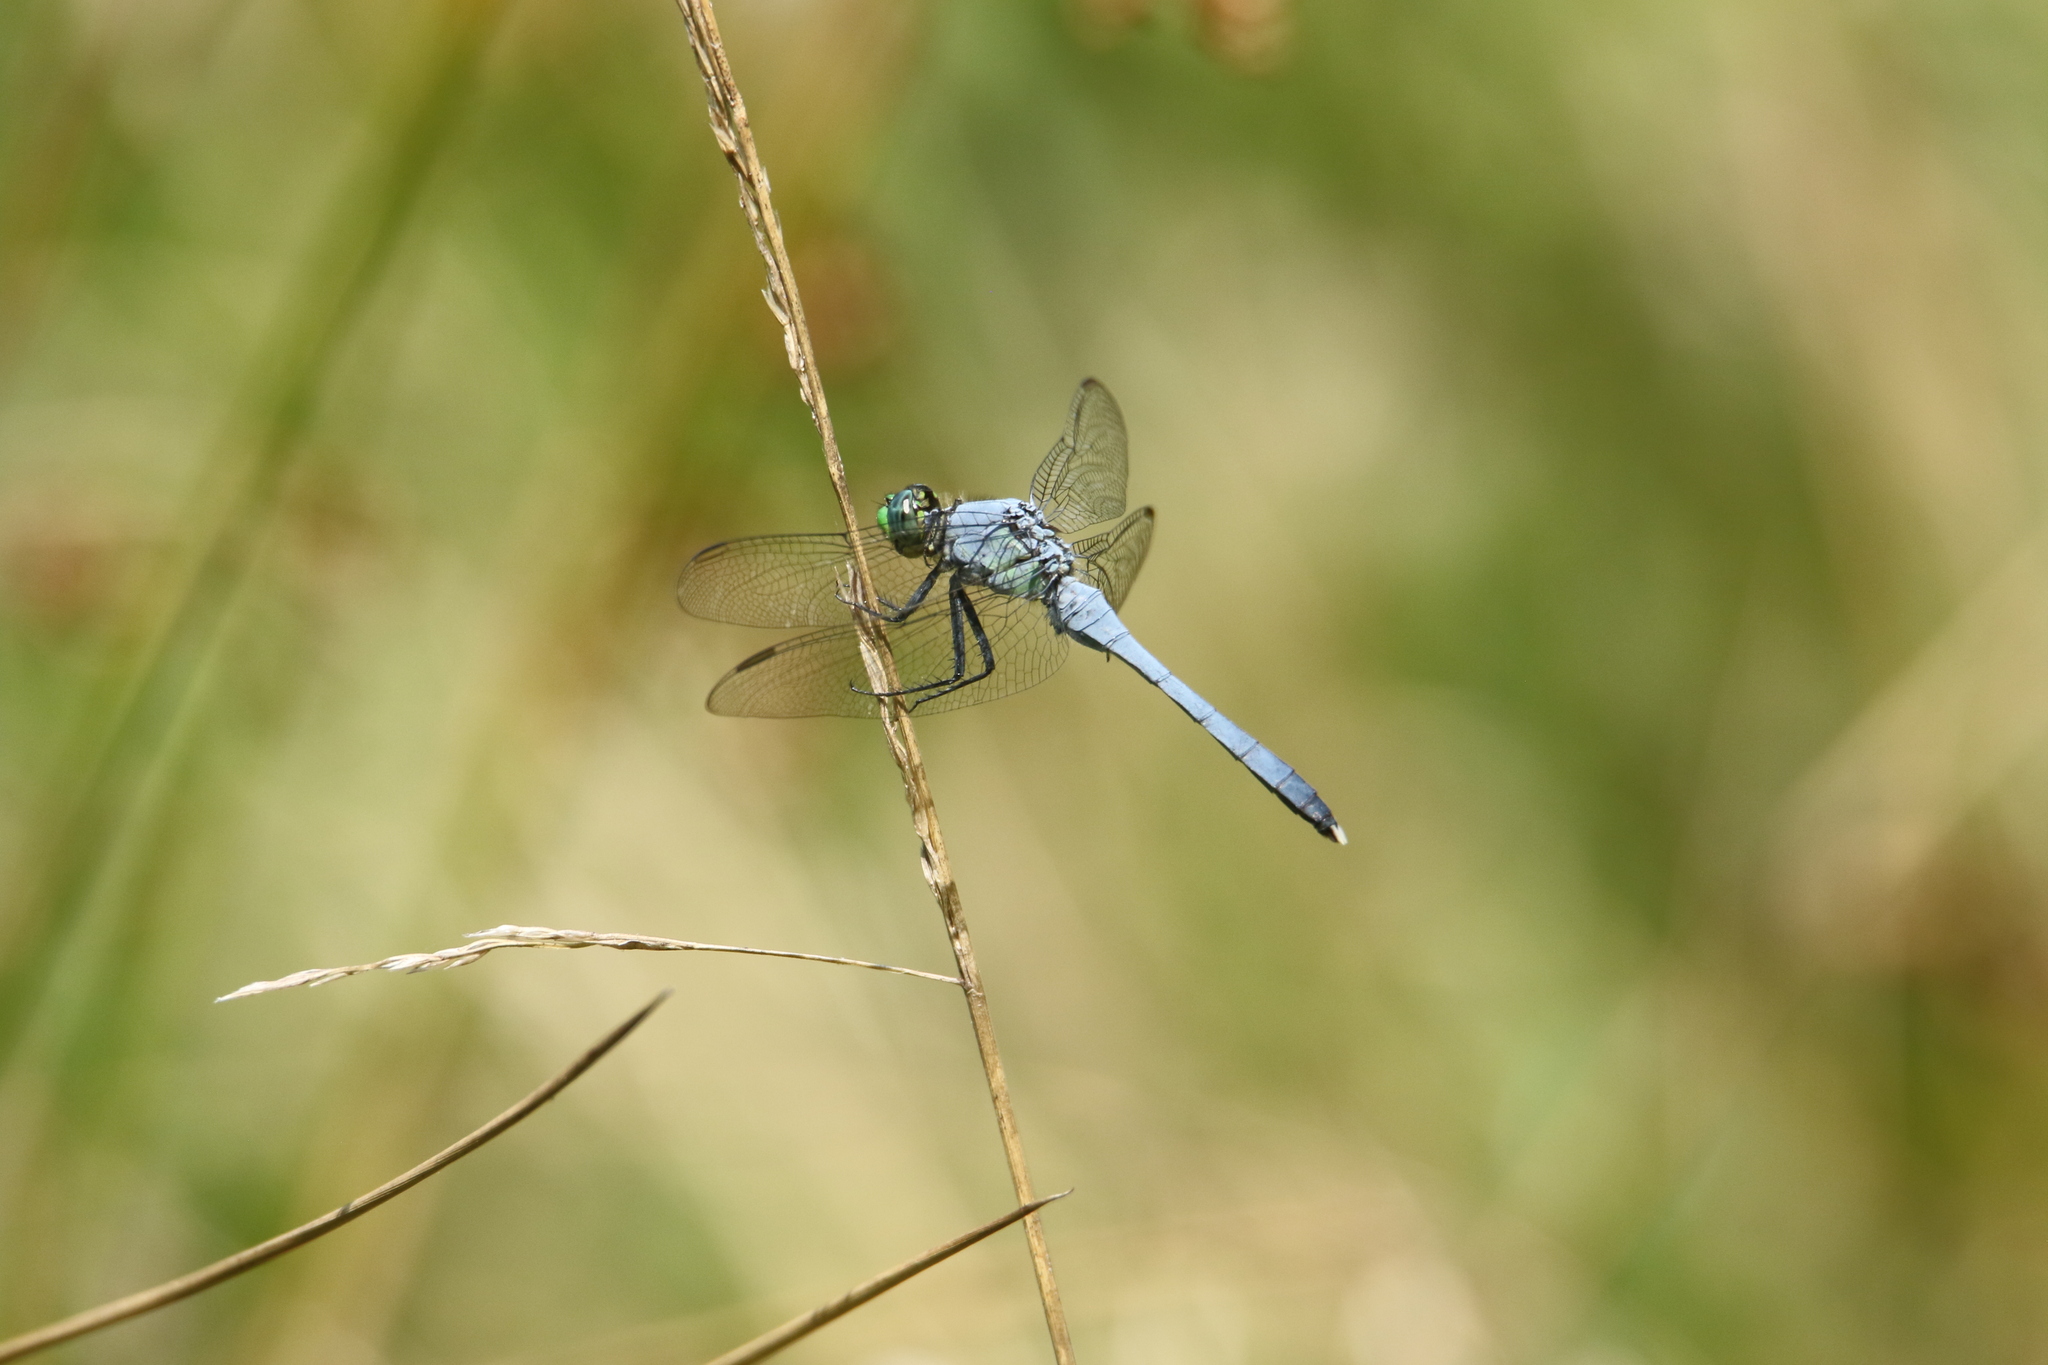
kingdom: Animalia
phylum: Arthropoda
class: Insecta
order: Odonata
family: Libellulidae
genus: Erythemis
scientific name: Erythemis simplicicollis
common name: Eastern pondhawk
